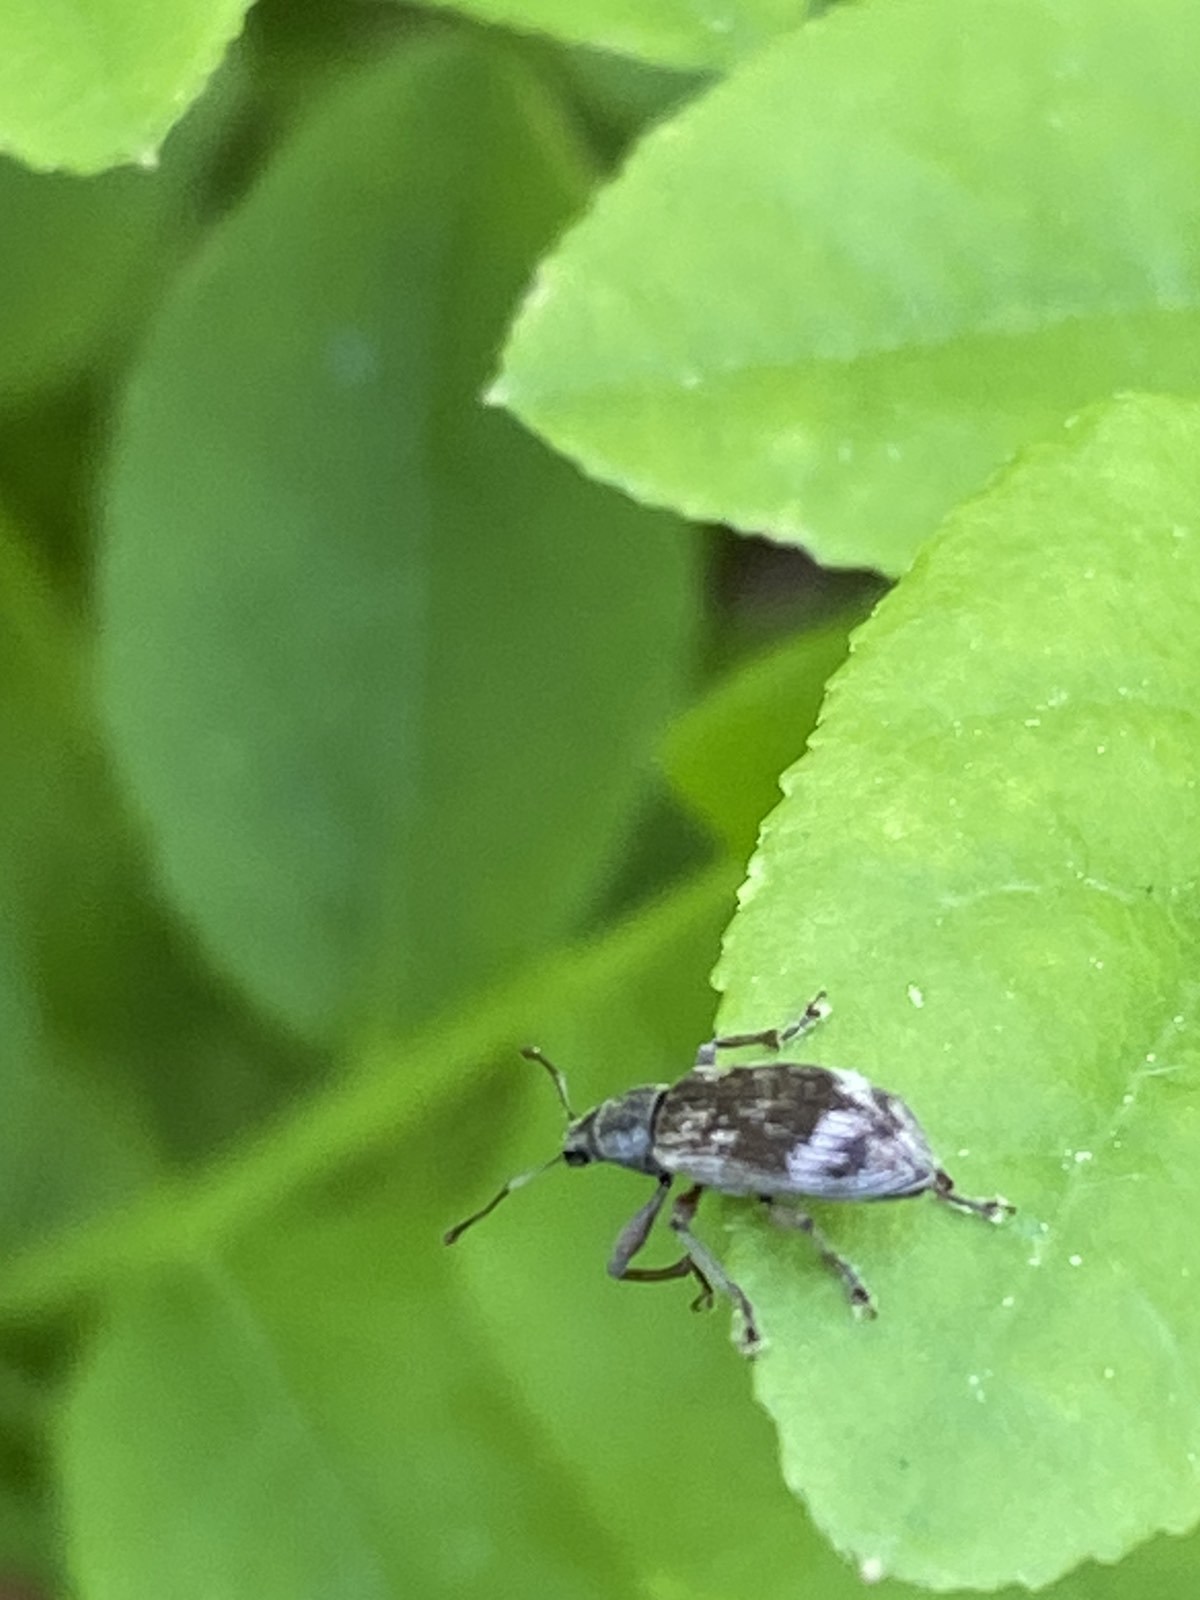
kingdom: Animalia
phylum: Arthropoda
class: Insecta
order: Coleoptera
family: Curculionidae
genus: Polydrusus
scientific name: Polydrusus tereticollis
